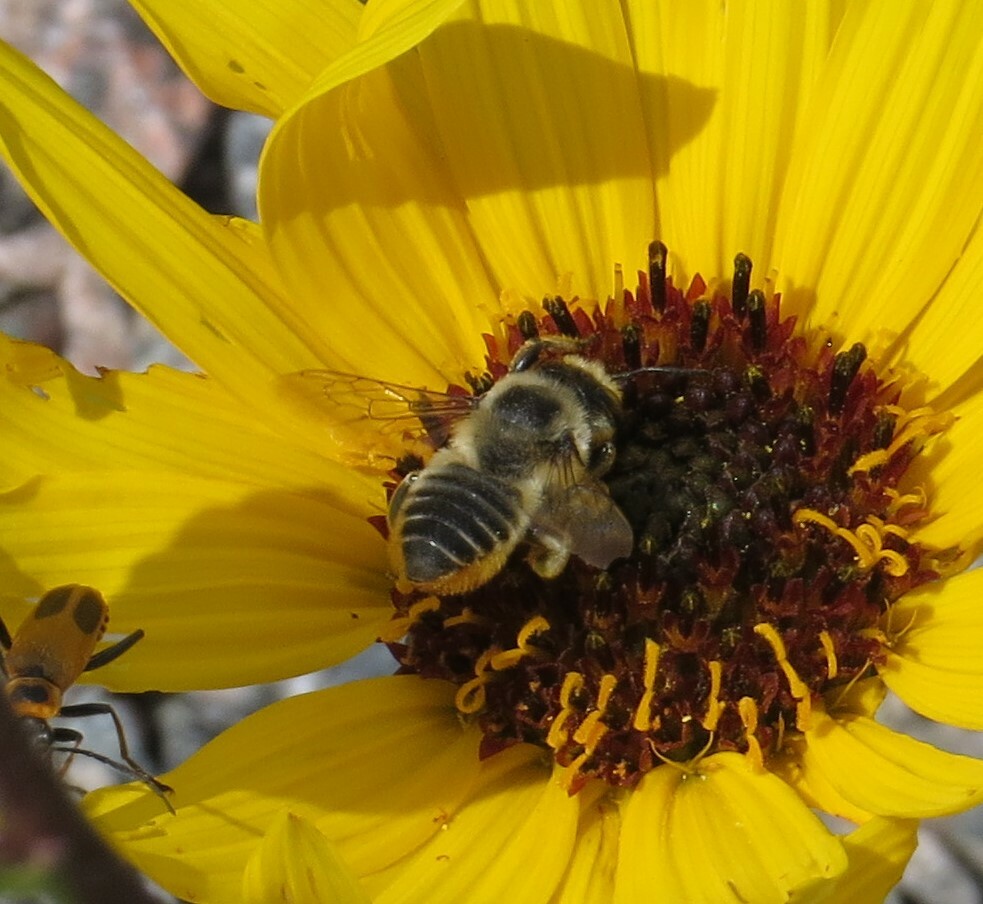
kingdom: Animalia
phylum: Arthropoda
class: Insecta
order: Hymenoptera
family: Megachilidae
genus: Megachile
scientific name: Megachile latimanus
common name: Leafcutting bee
